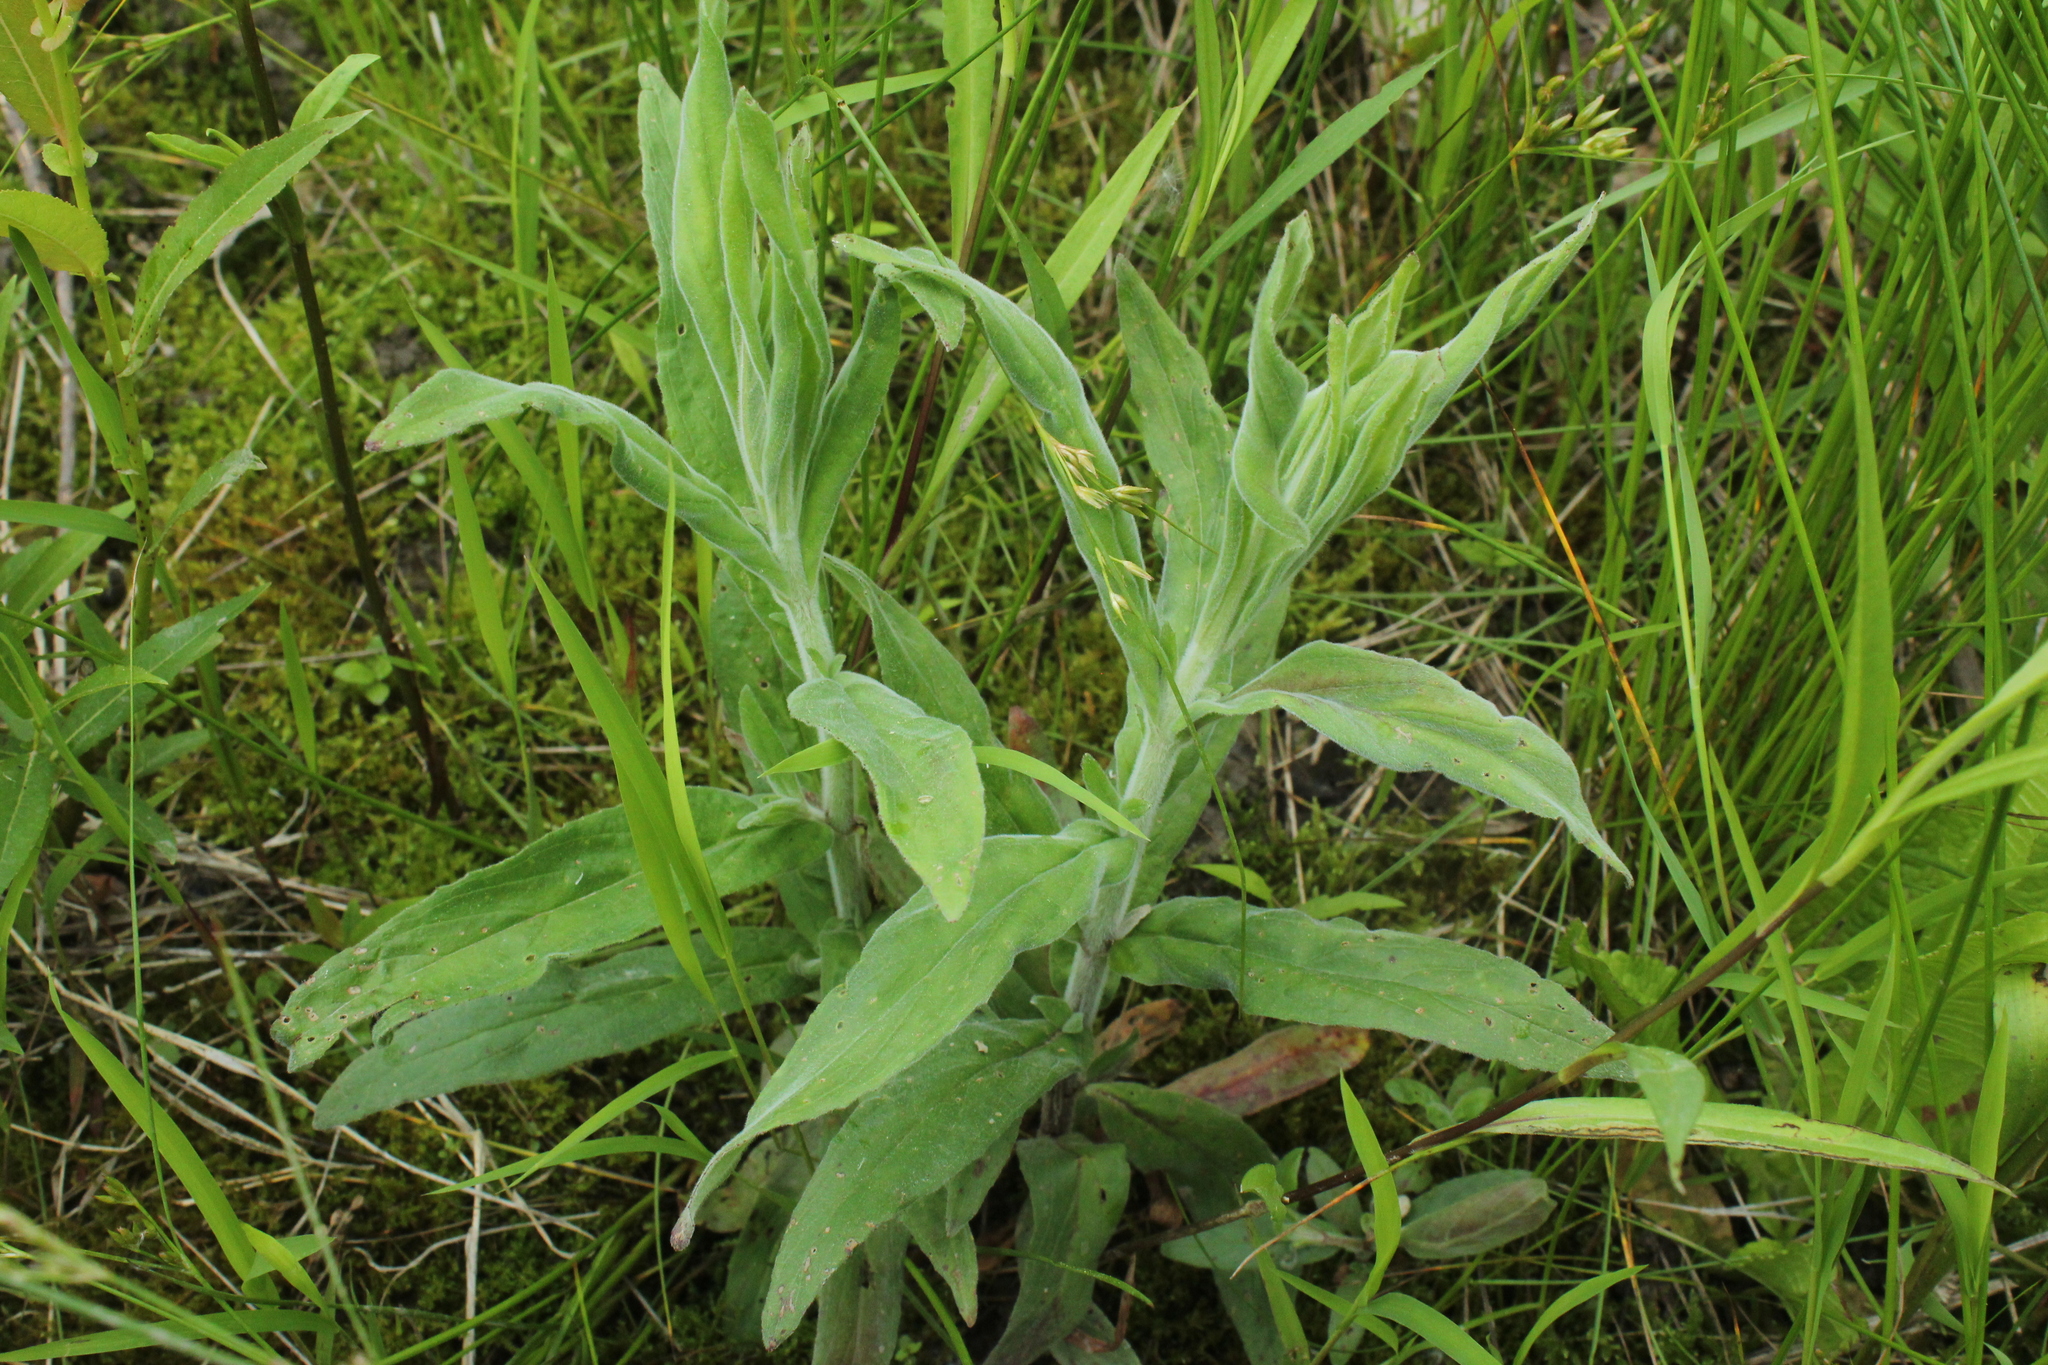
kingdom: Plantae
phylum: Tracheophyta
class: Magnoliopsida
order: Myrtales
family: Onagraceae
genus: Epilobium
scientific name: Epilobium parviflorum
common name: Hoary willowherb
